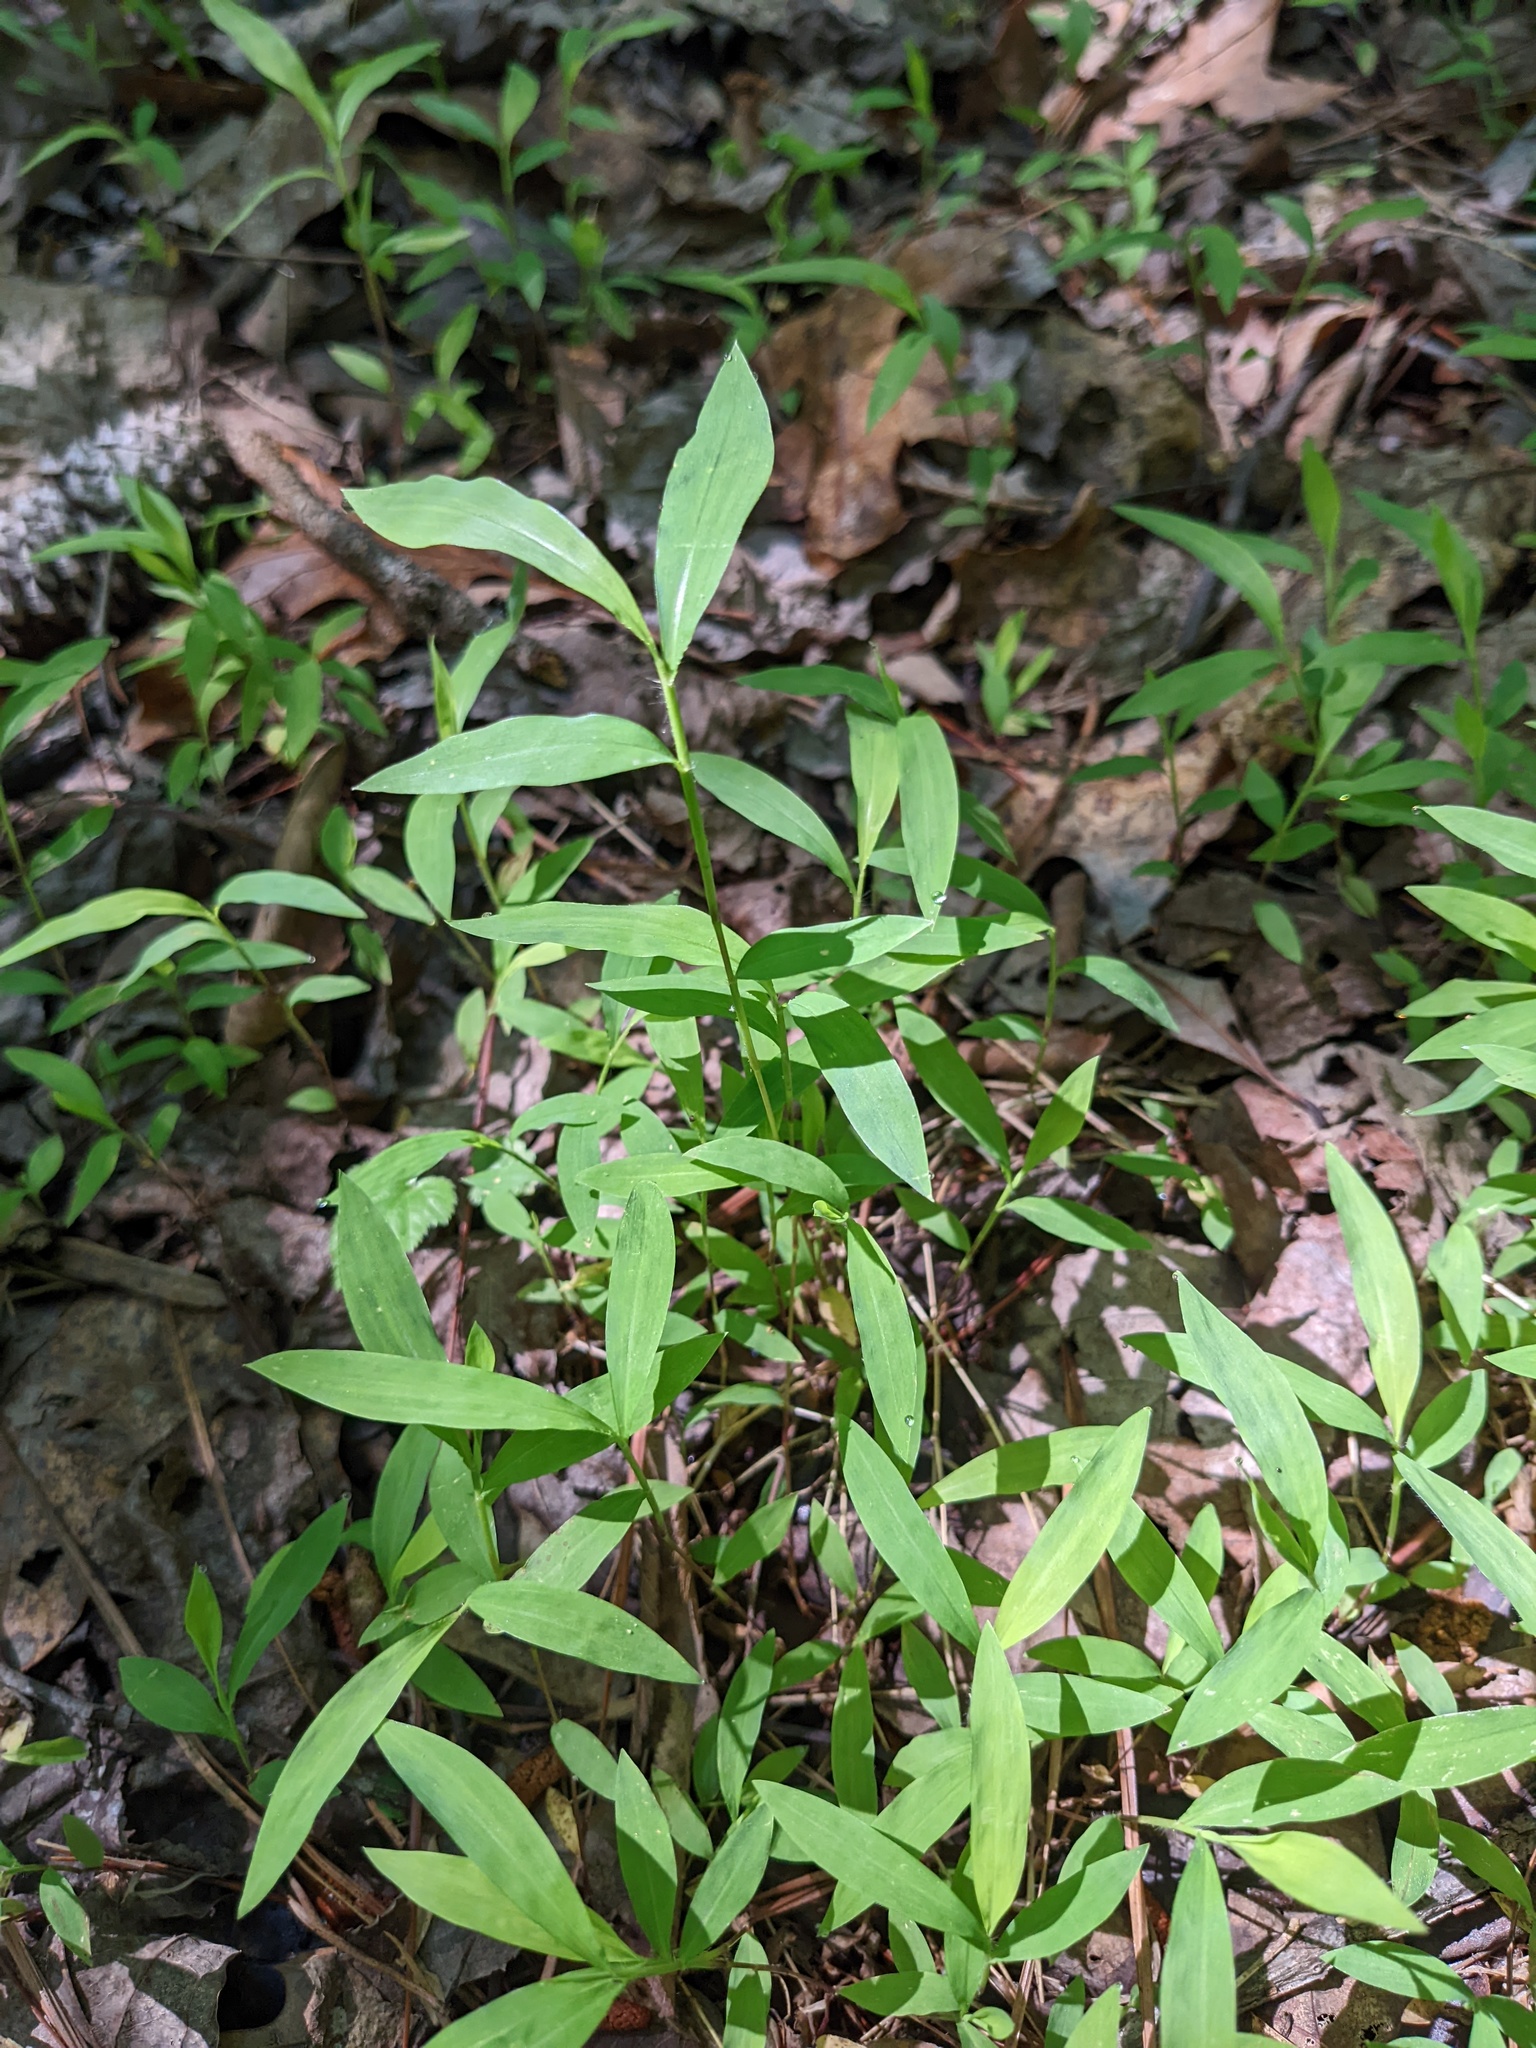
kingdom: Plantae
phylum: Tracheophyta
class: Liliopsida
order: Poales
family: Poaceae
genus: Microstegium
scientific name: Microstegium vimineum
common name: Japanese stiltgrass
